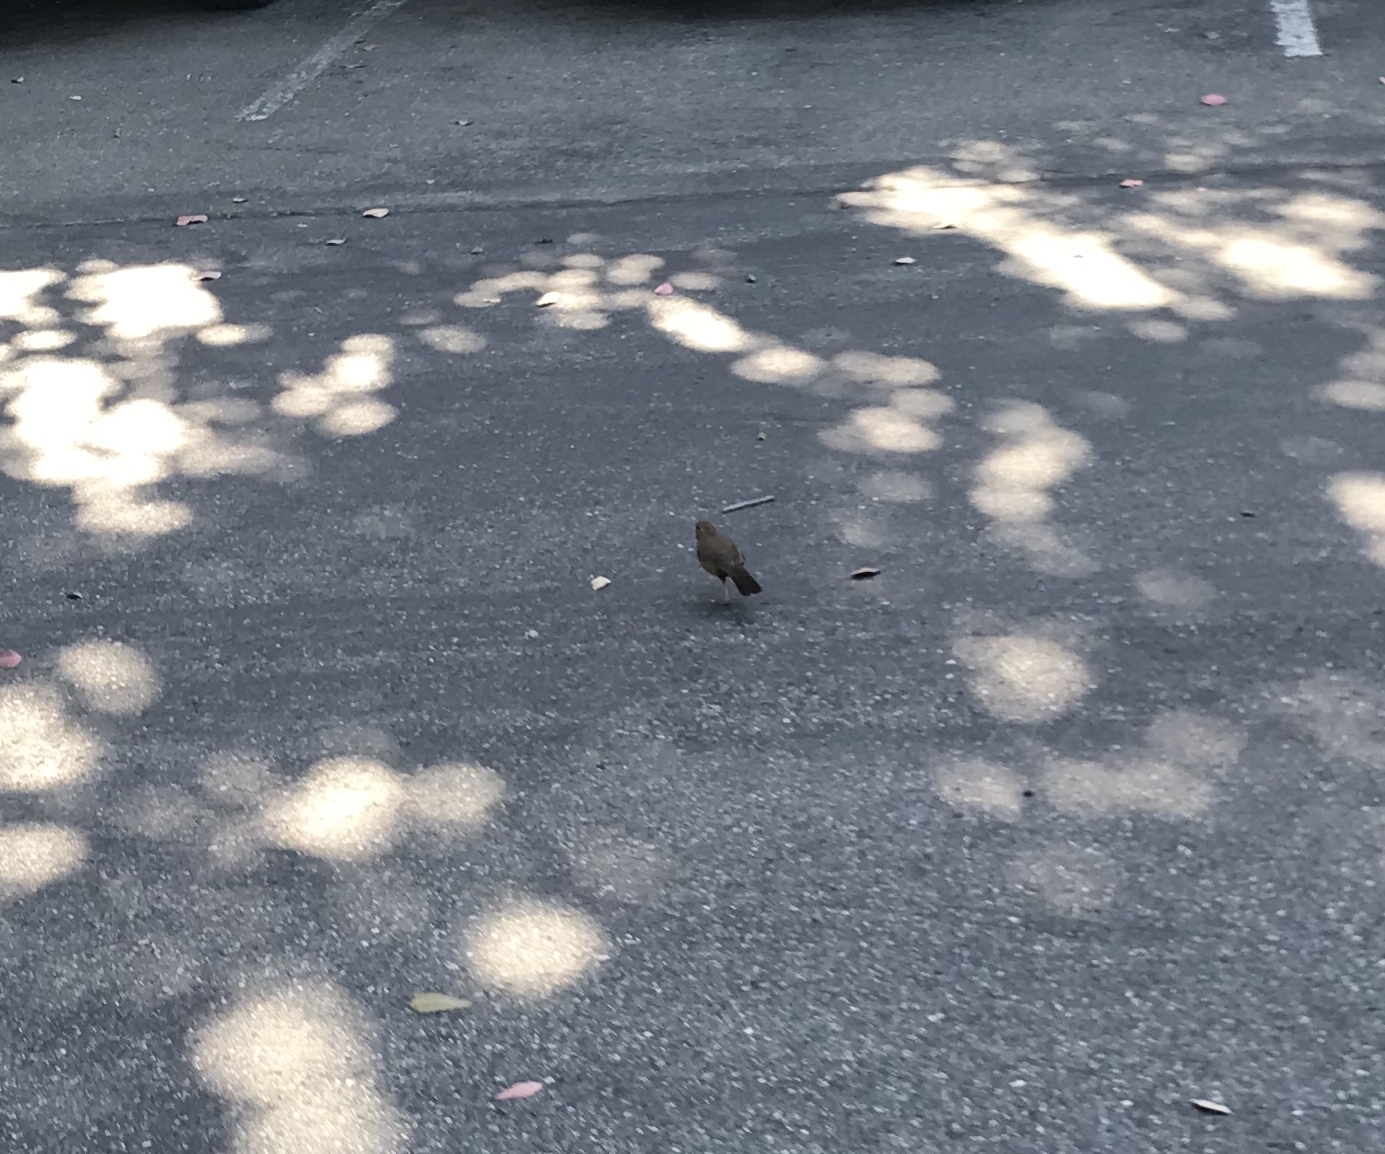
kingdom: Animalia
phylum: Chordata
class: Aves
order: Passeriformes
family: Passerellidae
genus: Melozone
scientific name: Melozone crissalis
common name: California towhee
